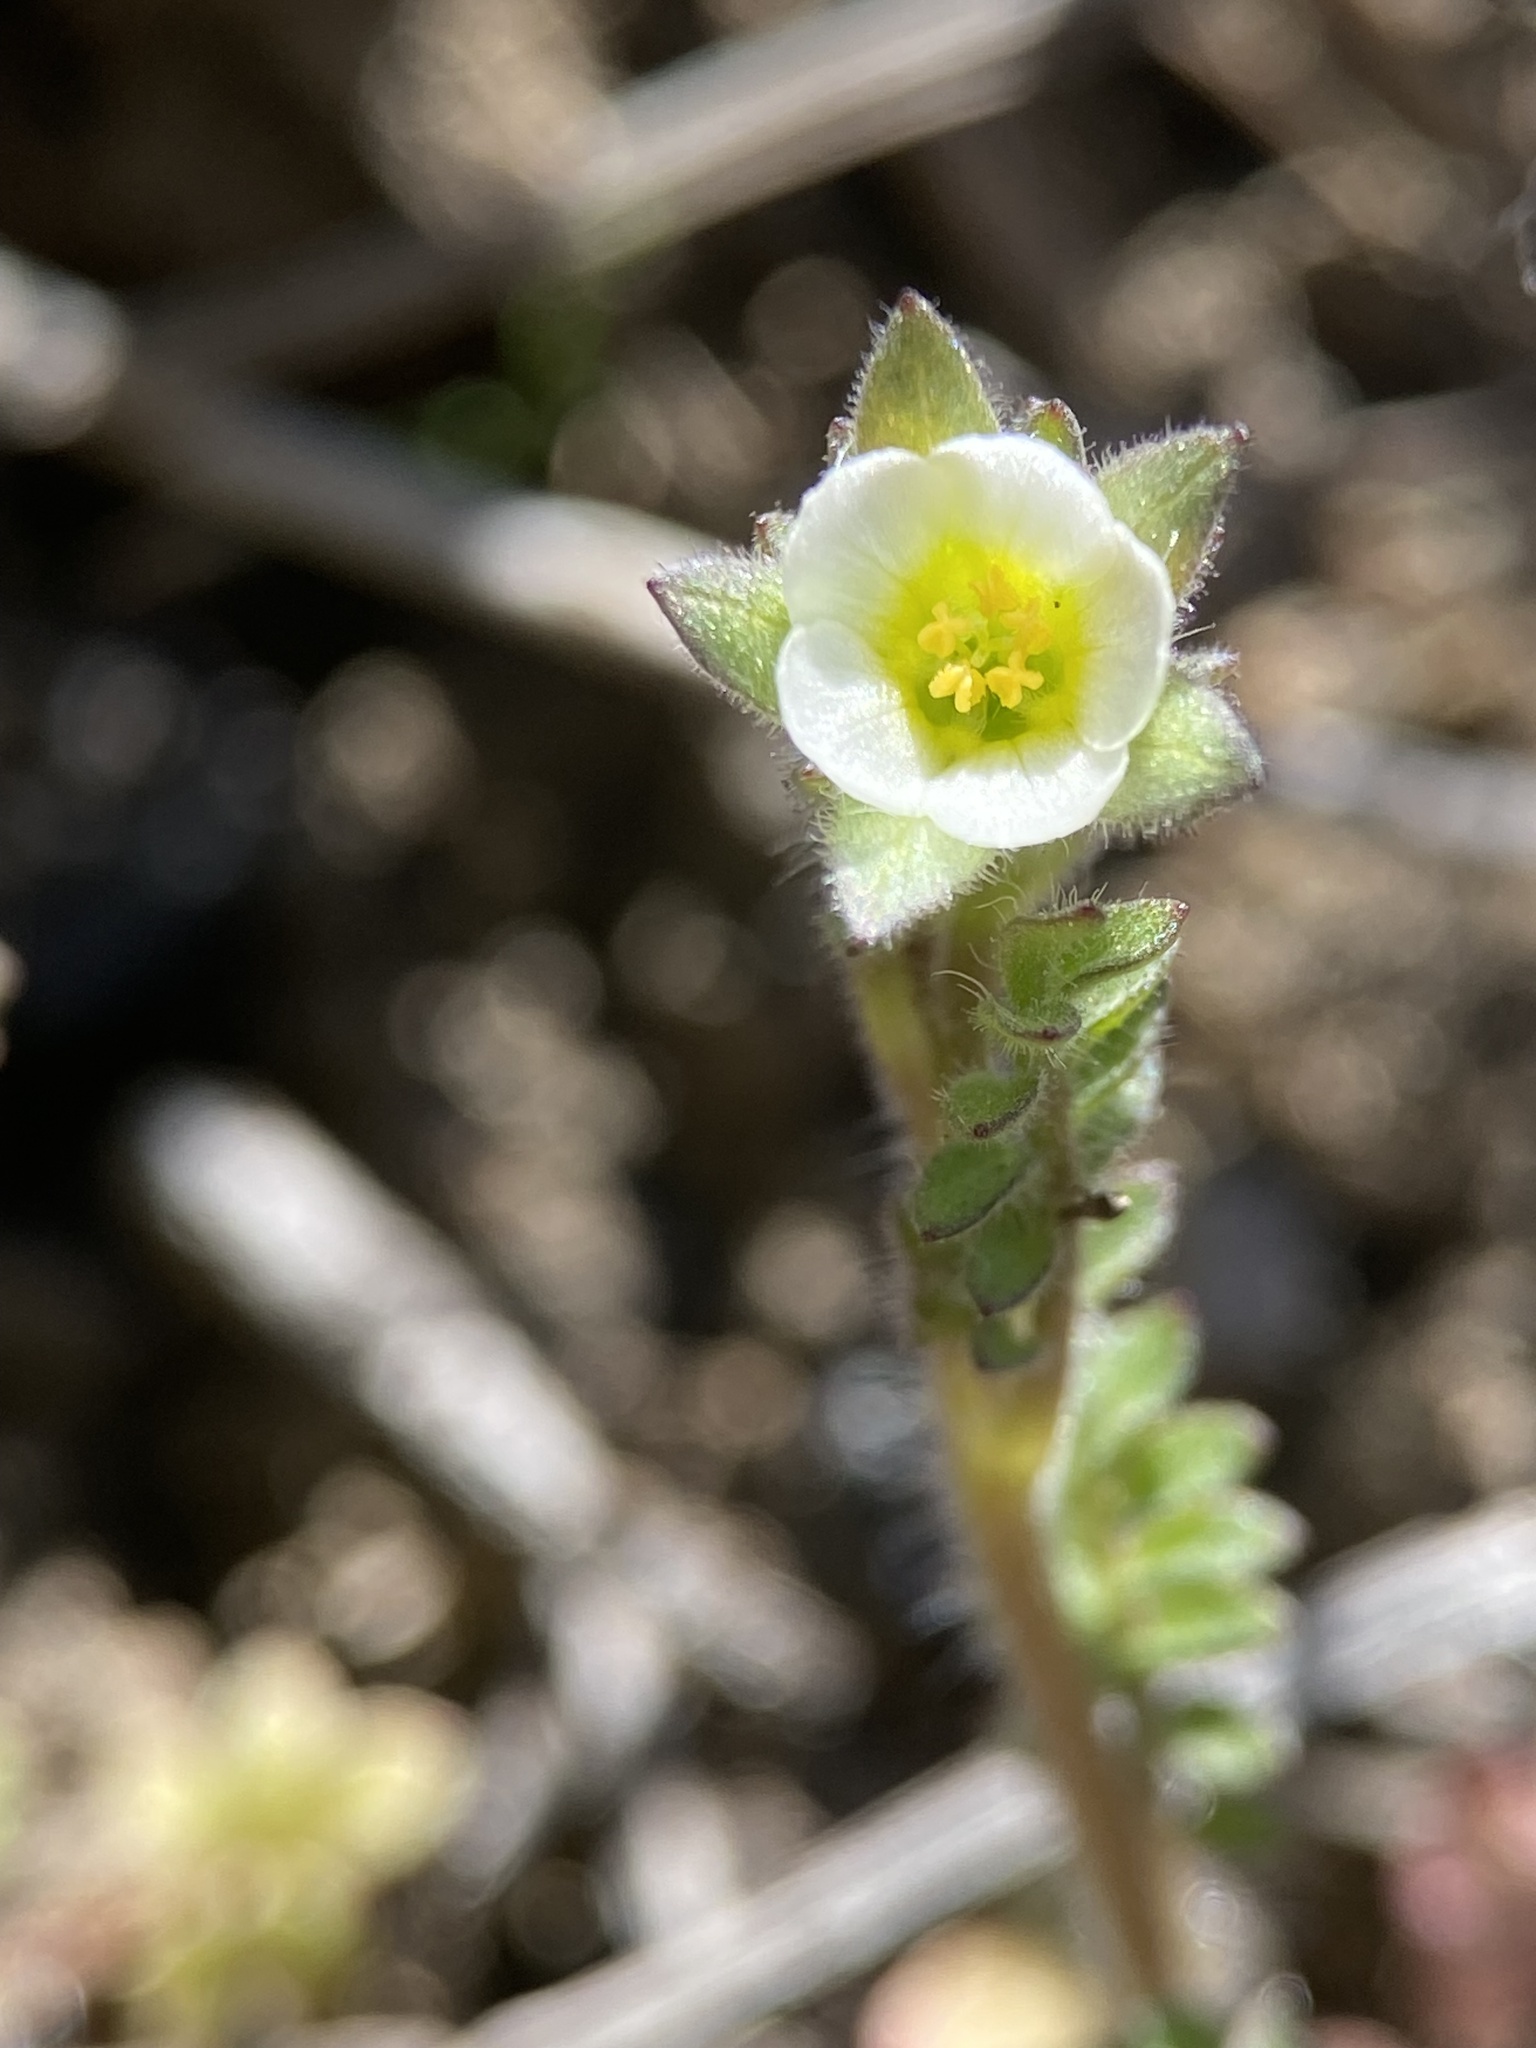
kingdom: Plantae
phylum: Tracheophyta
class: Magnoliopsida
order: Ericales
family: Polemoniaceae
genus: Polemonium
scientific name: Polemonium micranthum
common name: Annual jacob's-ladder
